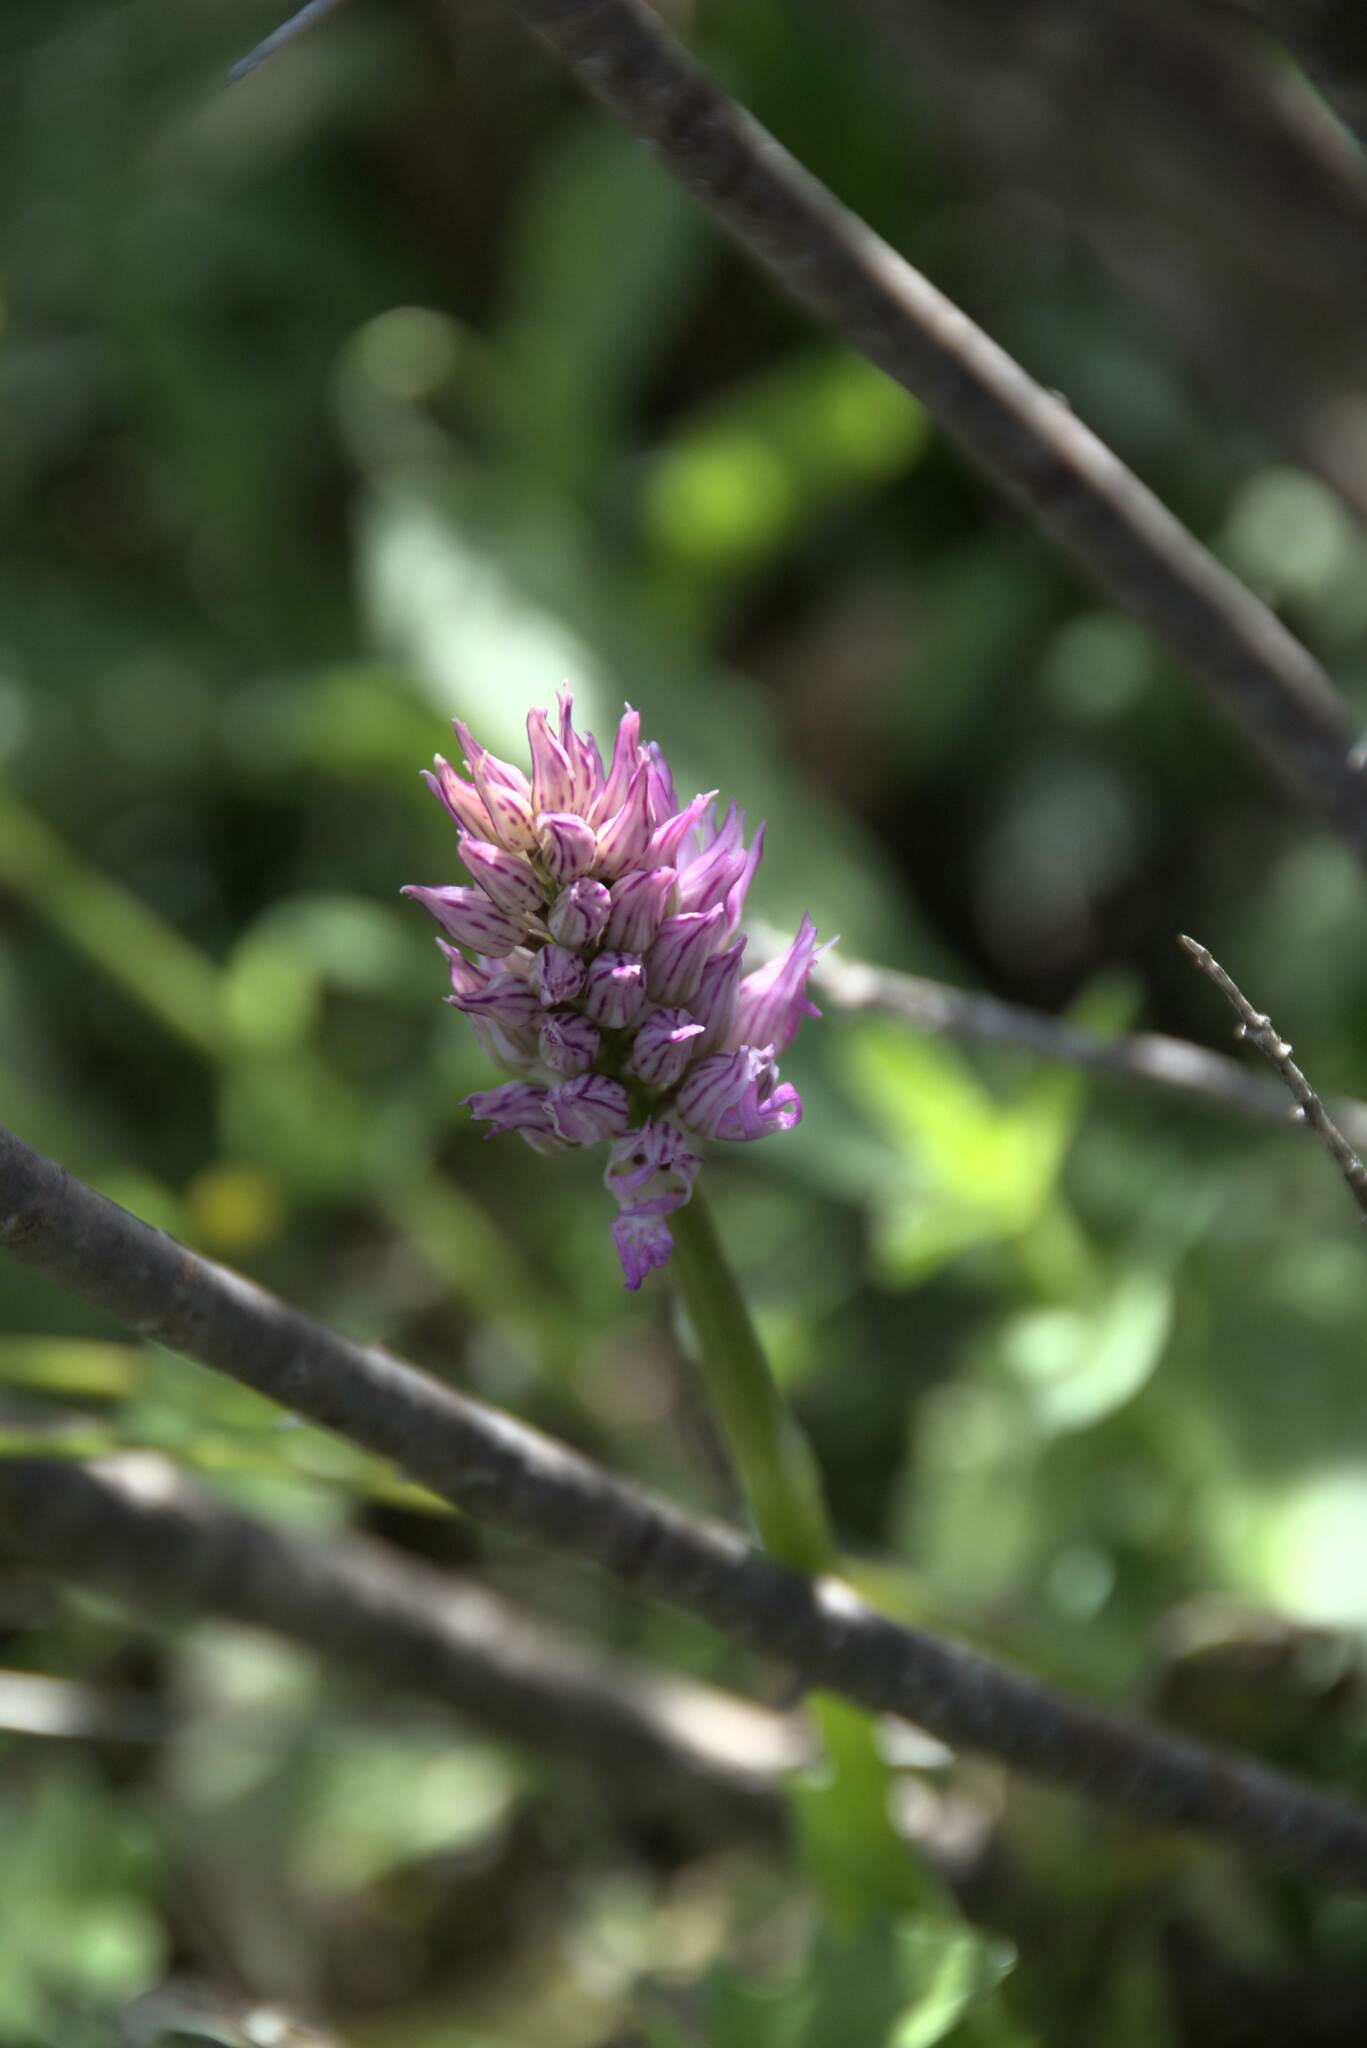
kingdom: Plantae
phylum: Tracheophyta
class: Liliopsida
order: Asparagales
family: Orchidaceae
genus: Orchis
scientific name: Orchis italica
